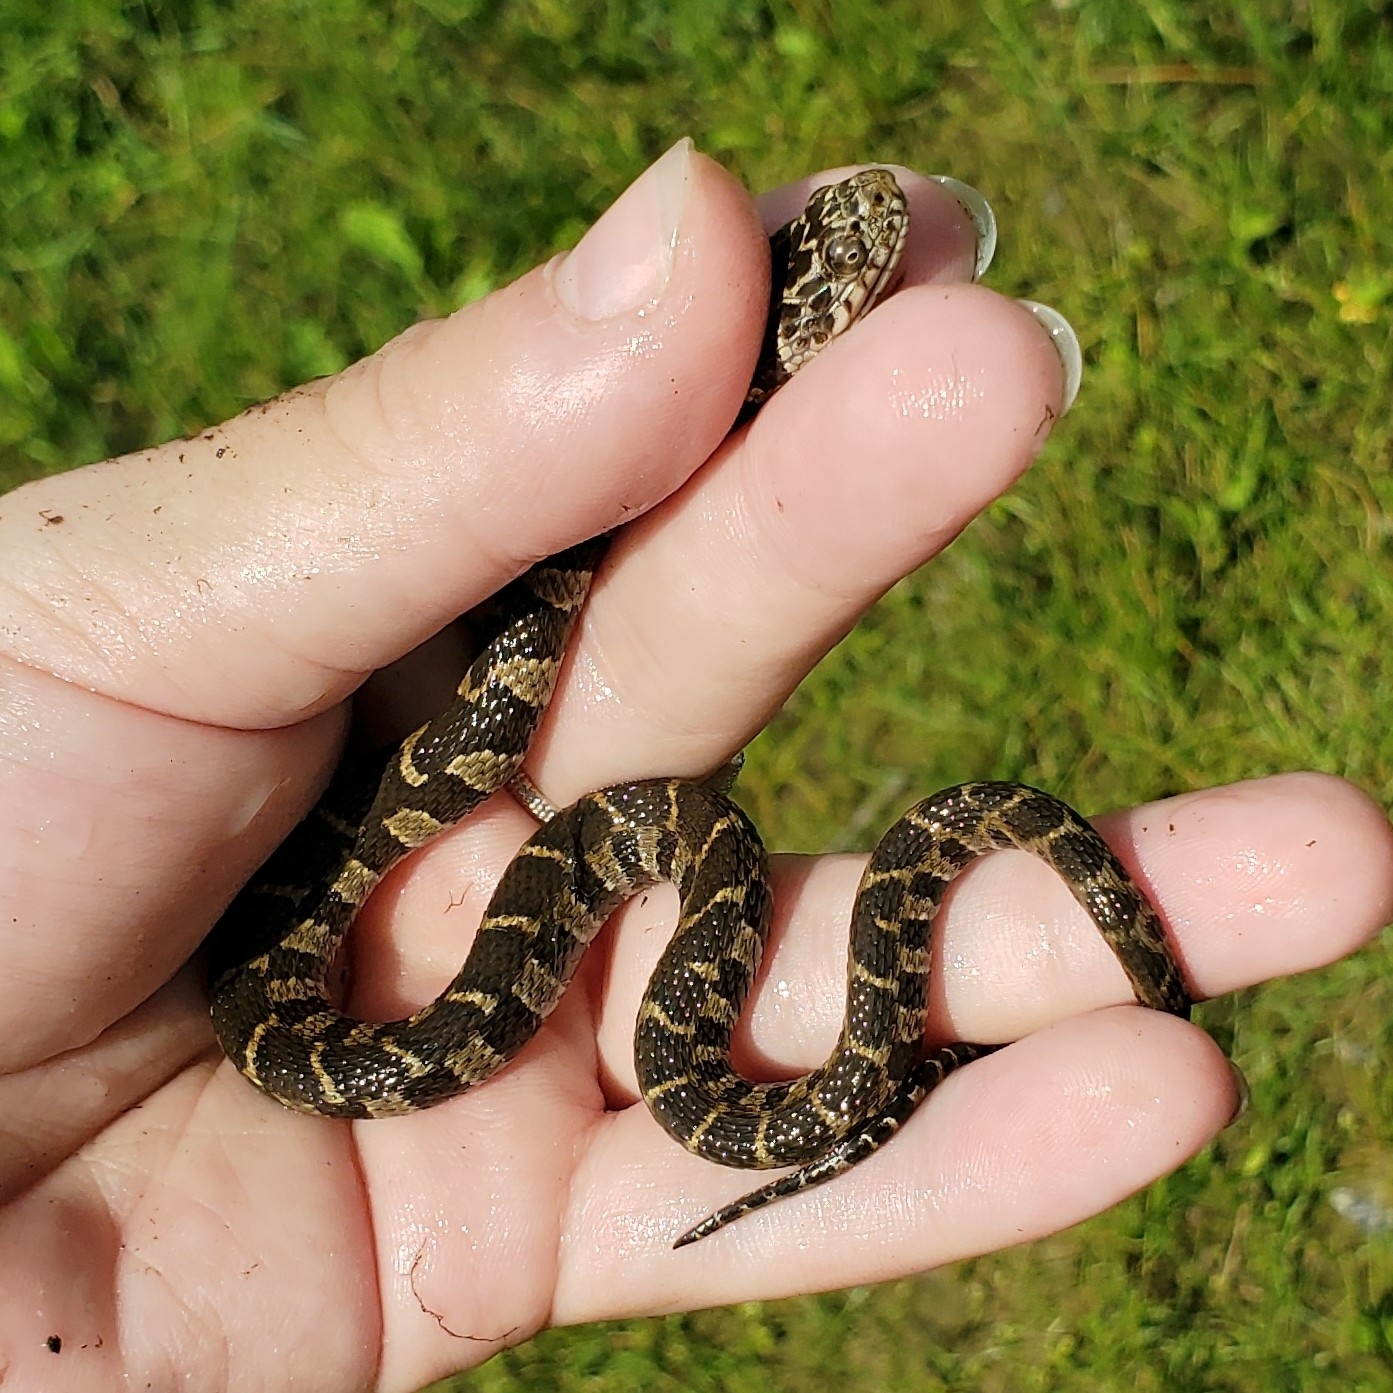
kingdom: Animalia
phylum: Chordata
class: Squamata
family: Colubridae
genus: Nerodia
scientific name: Nerodia sipedon
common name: Northern water snake
